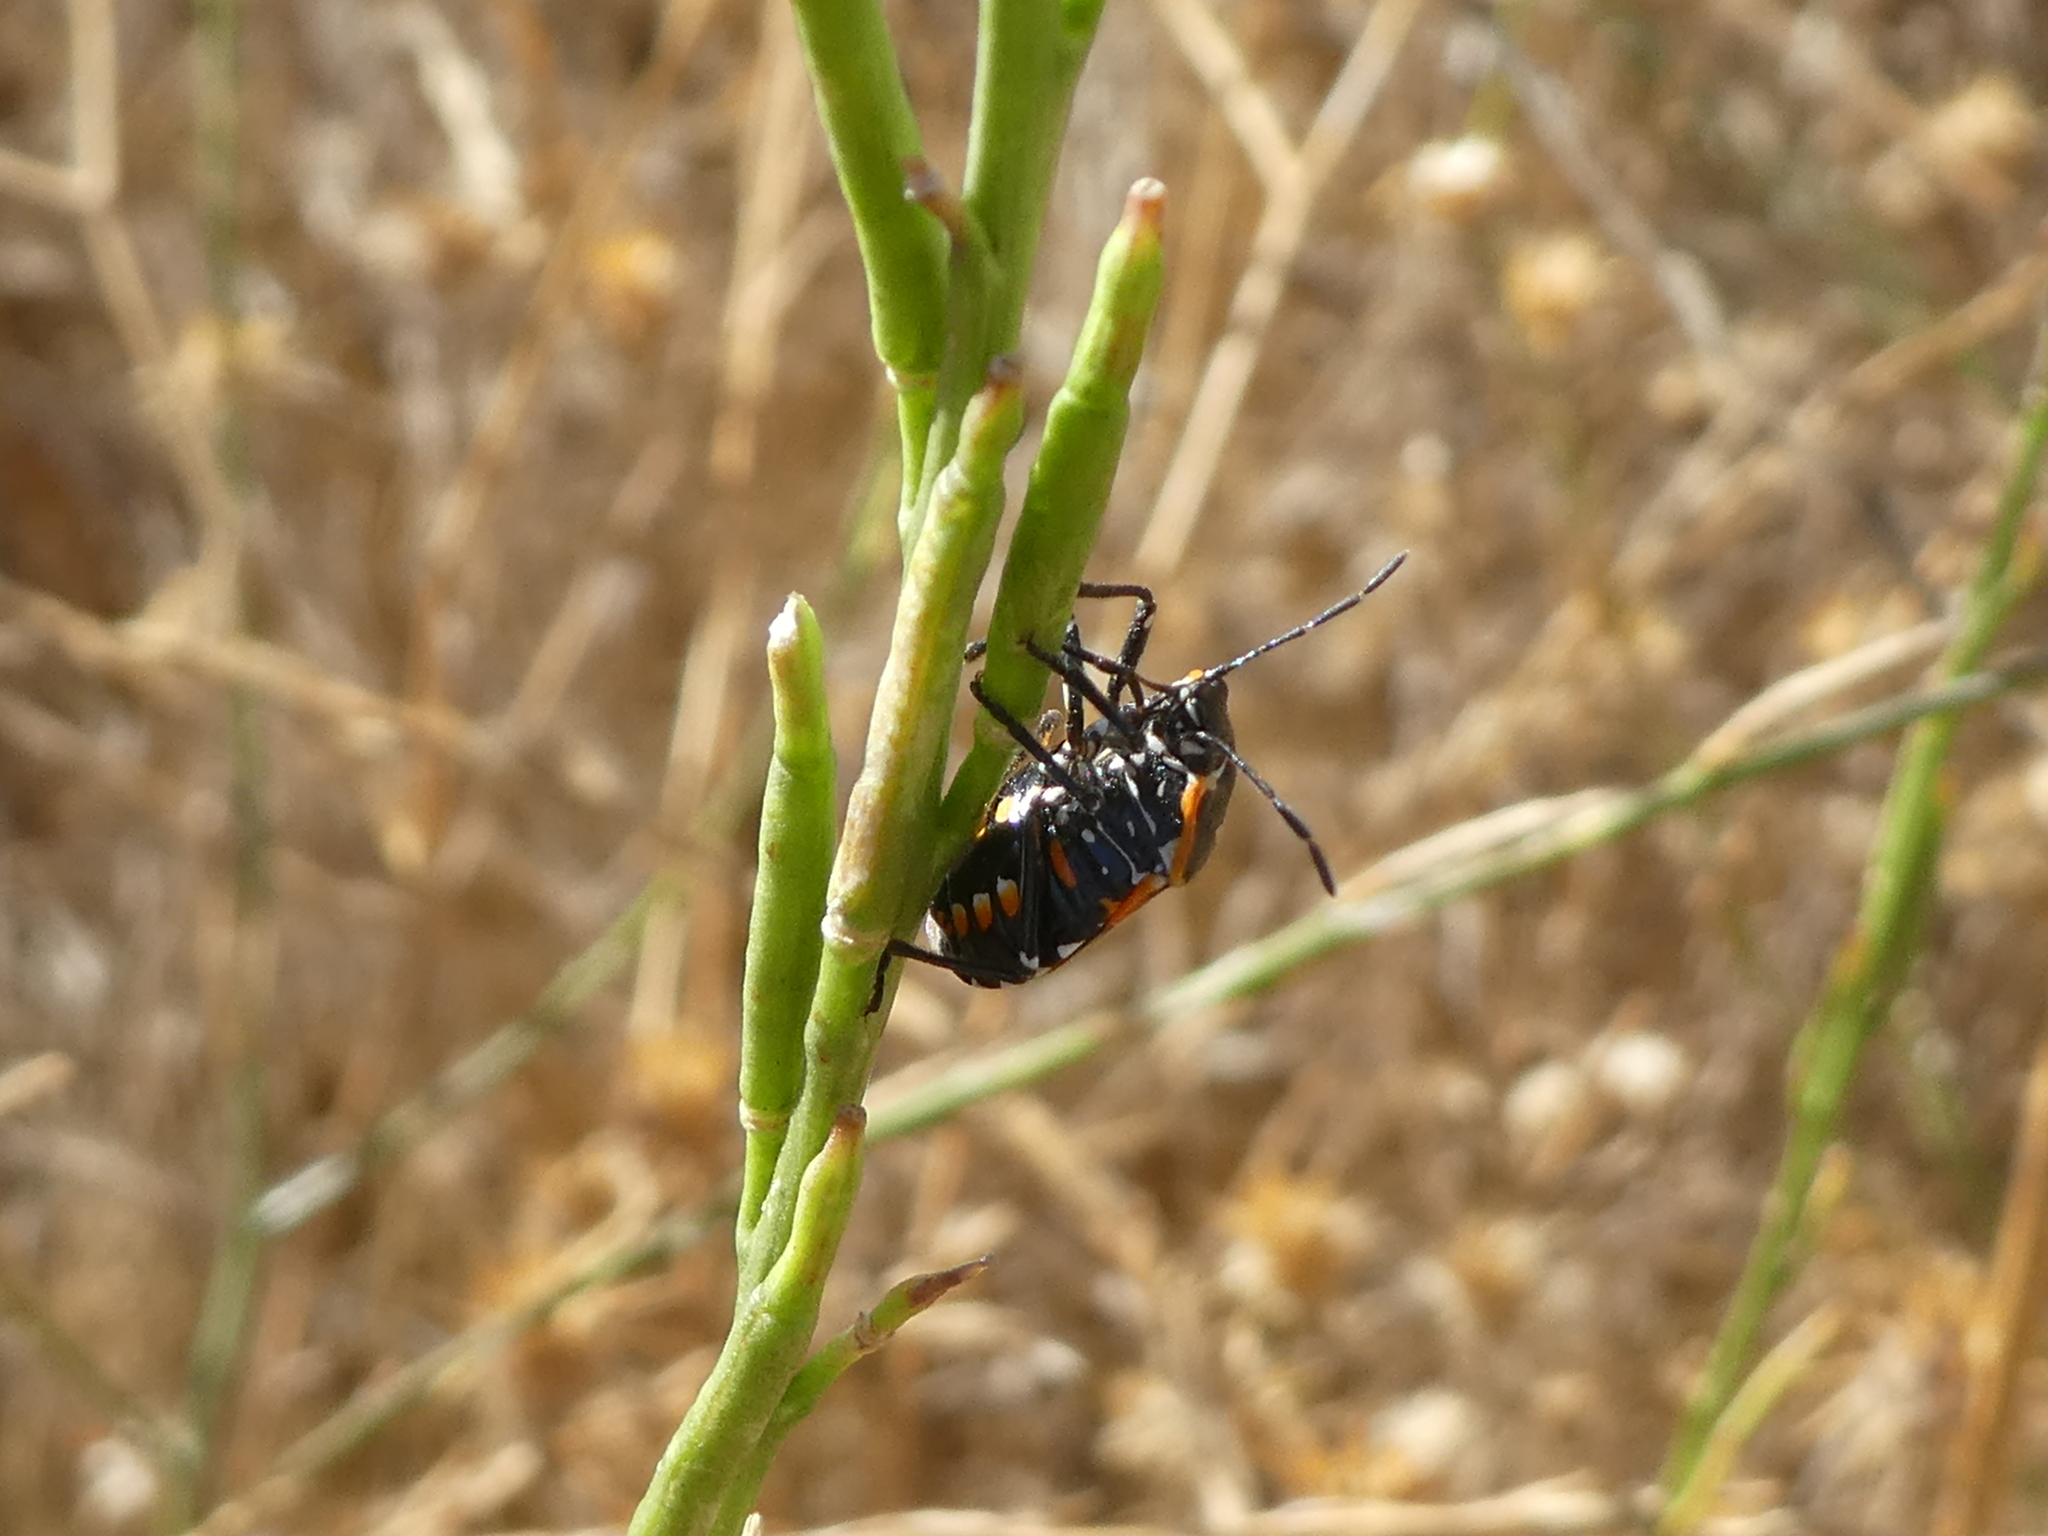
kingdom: Animalia
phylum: Arthropoda
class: Insecta
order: Hemiptera
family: Pentatomidae
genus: Murgantia
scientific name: Murgantia histrionica
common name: Harlequin bug
